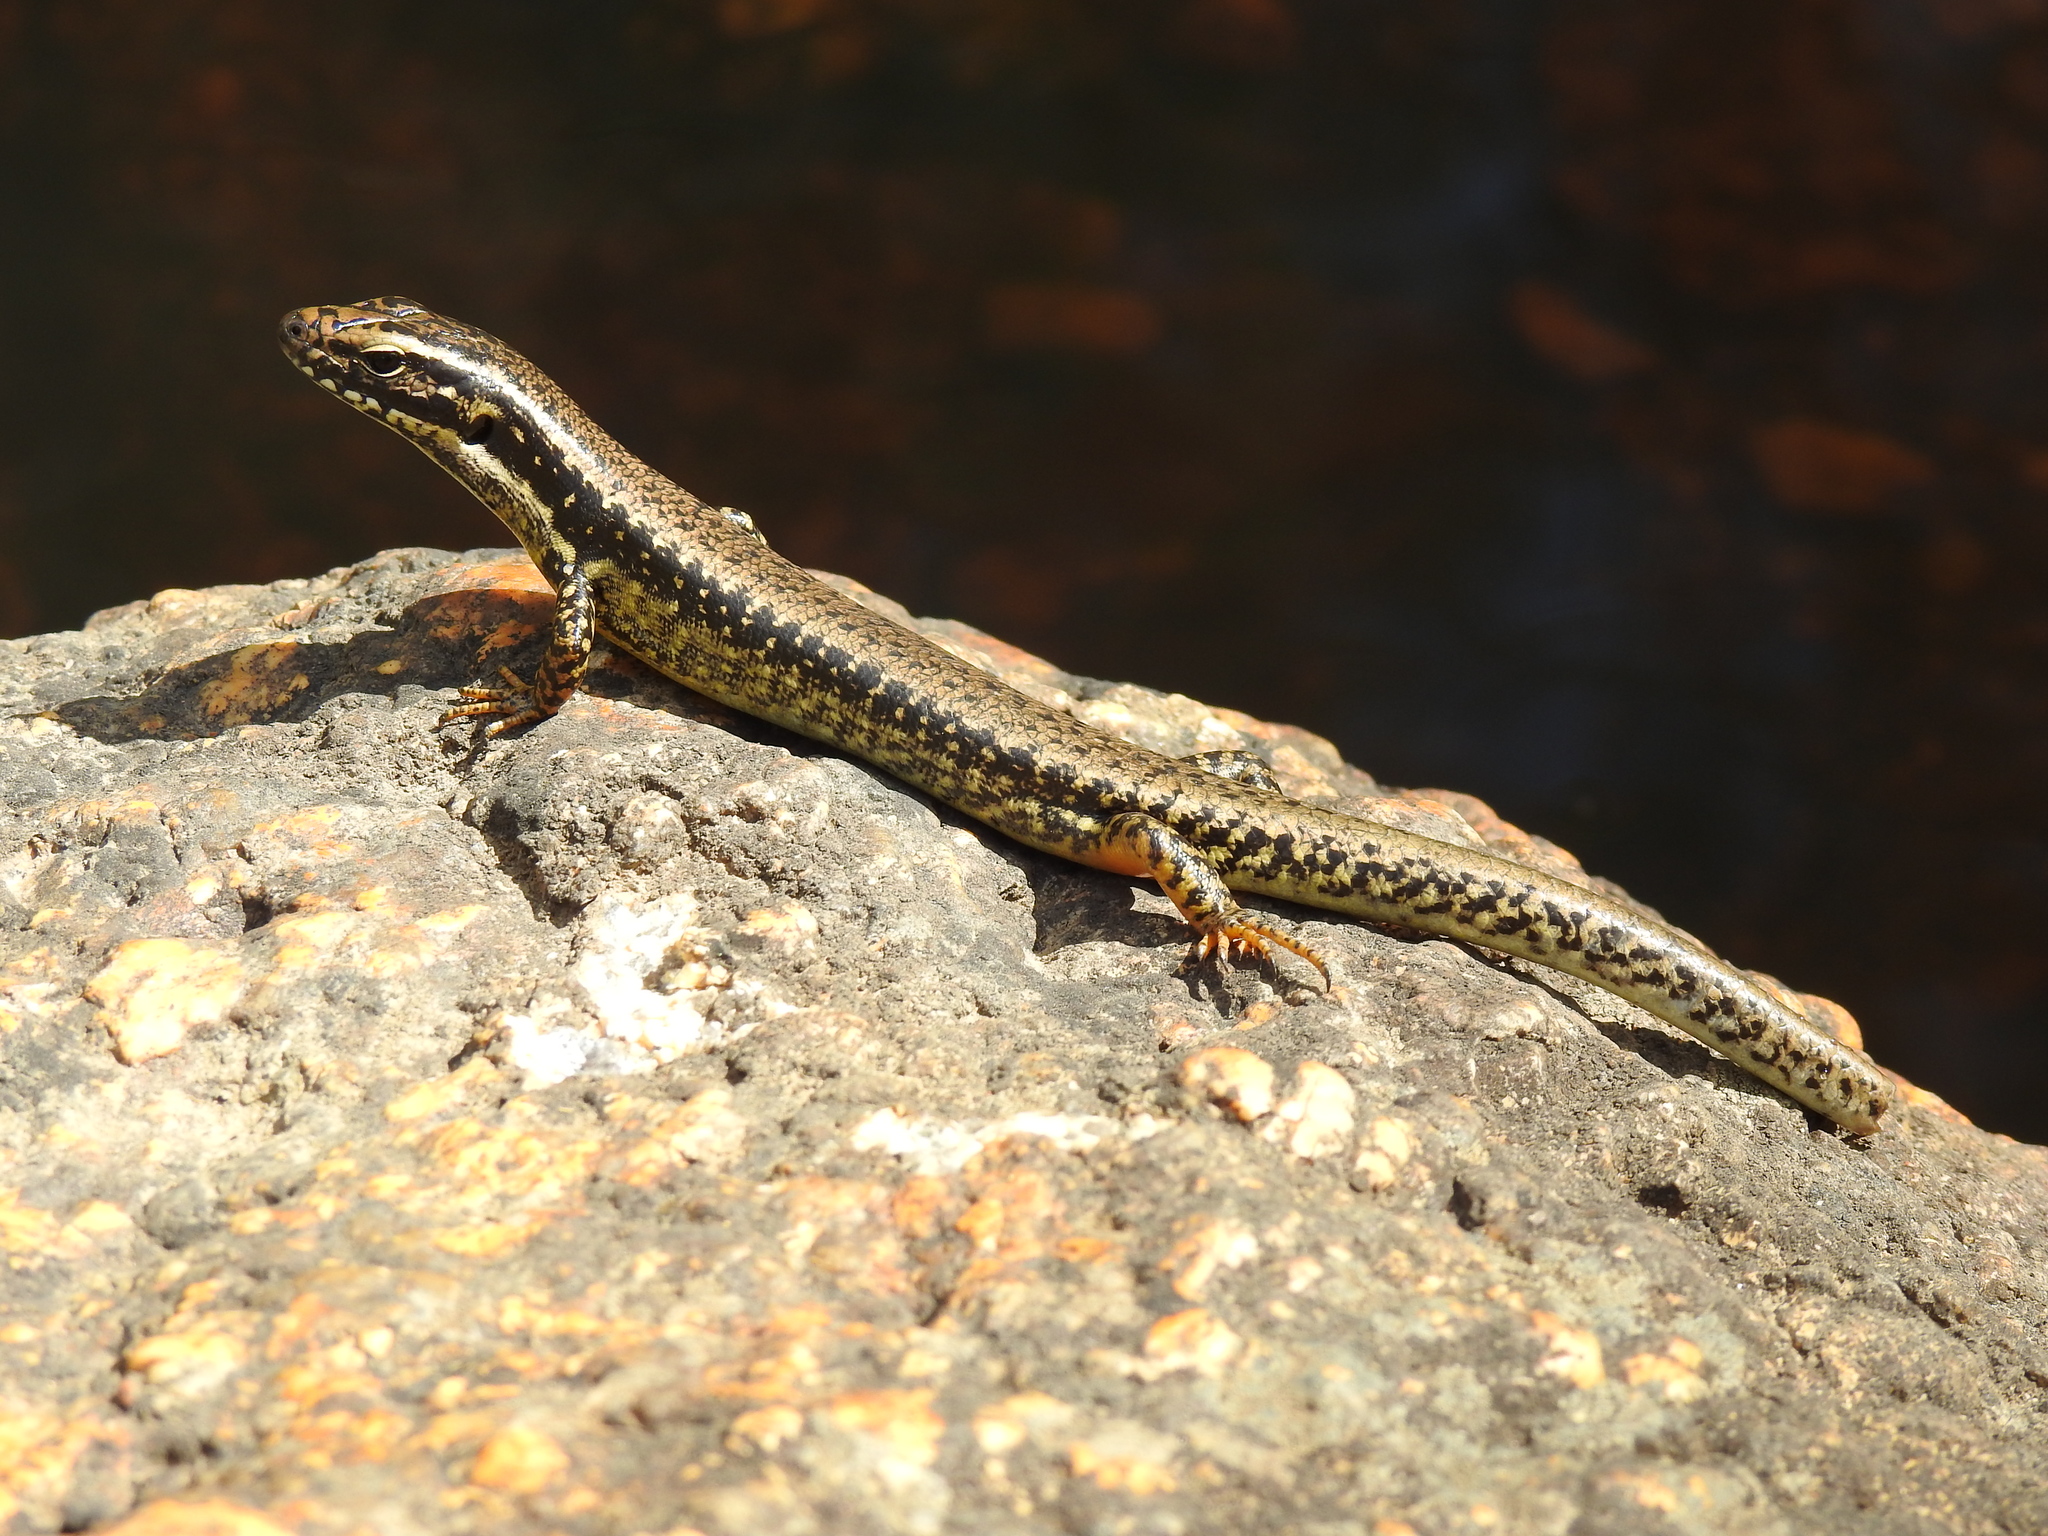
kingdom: Animalia
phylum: Chordata
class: Squamata
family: Scincidae
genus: Eulamprus
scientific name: Eulamprus heatwolei
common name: Warm-temperate water-skink
